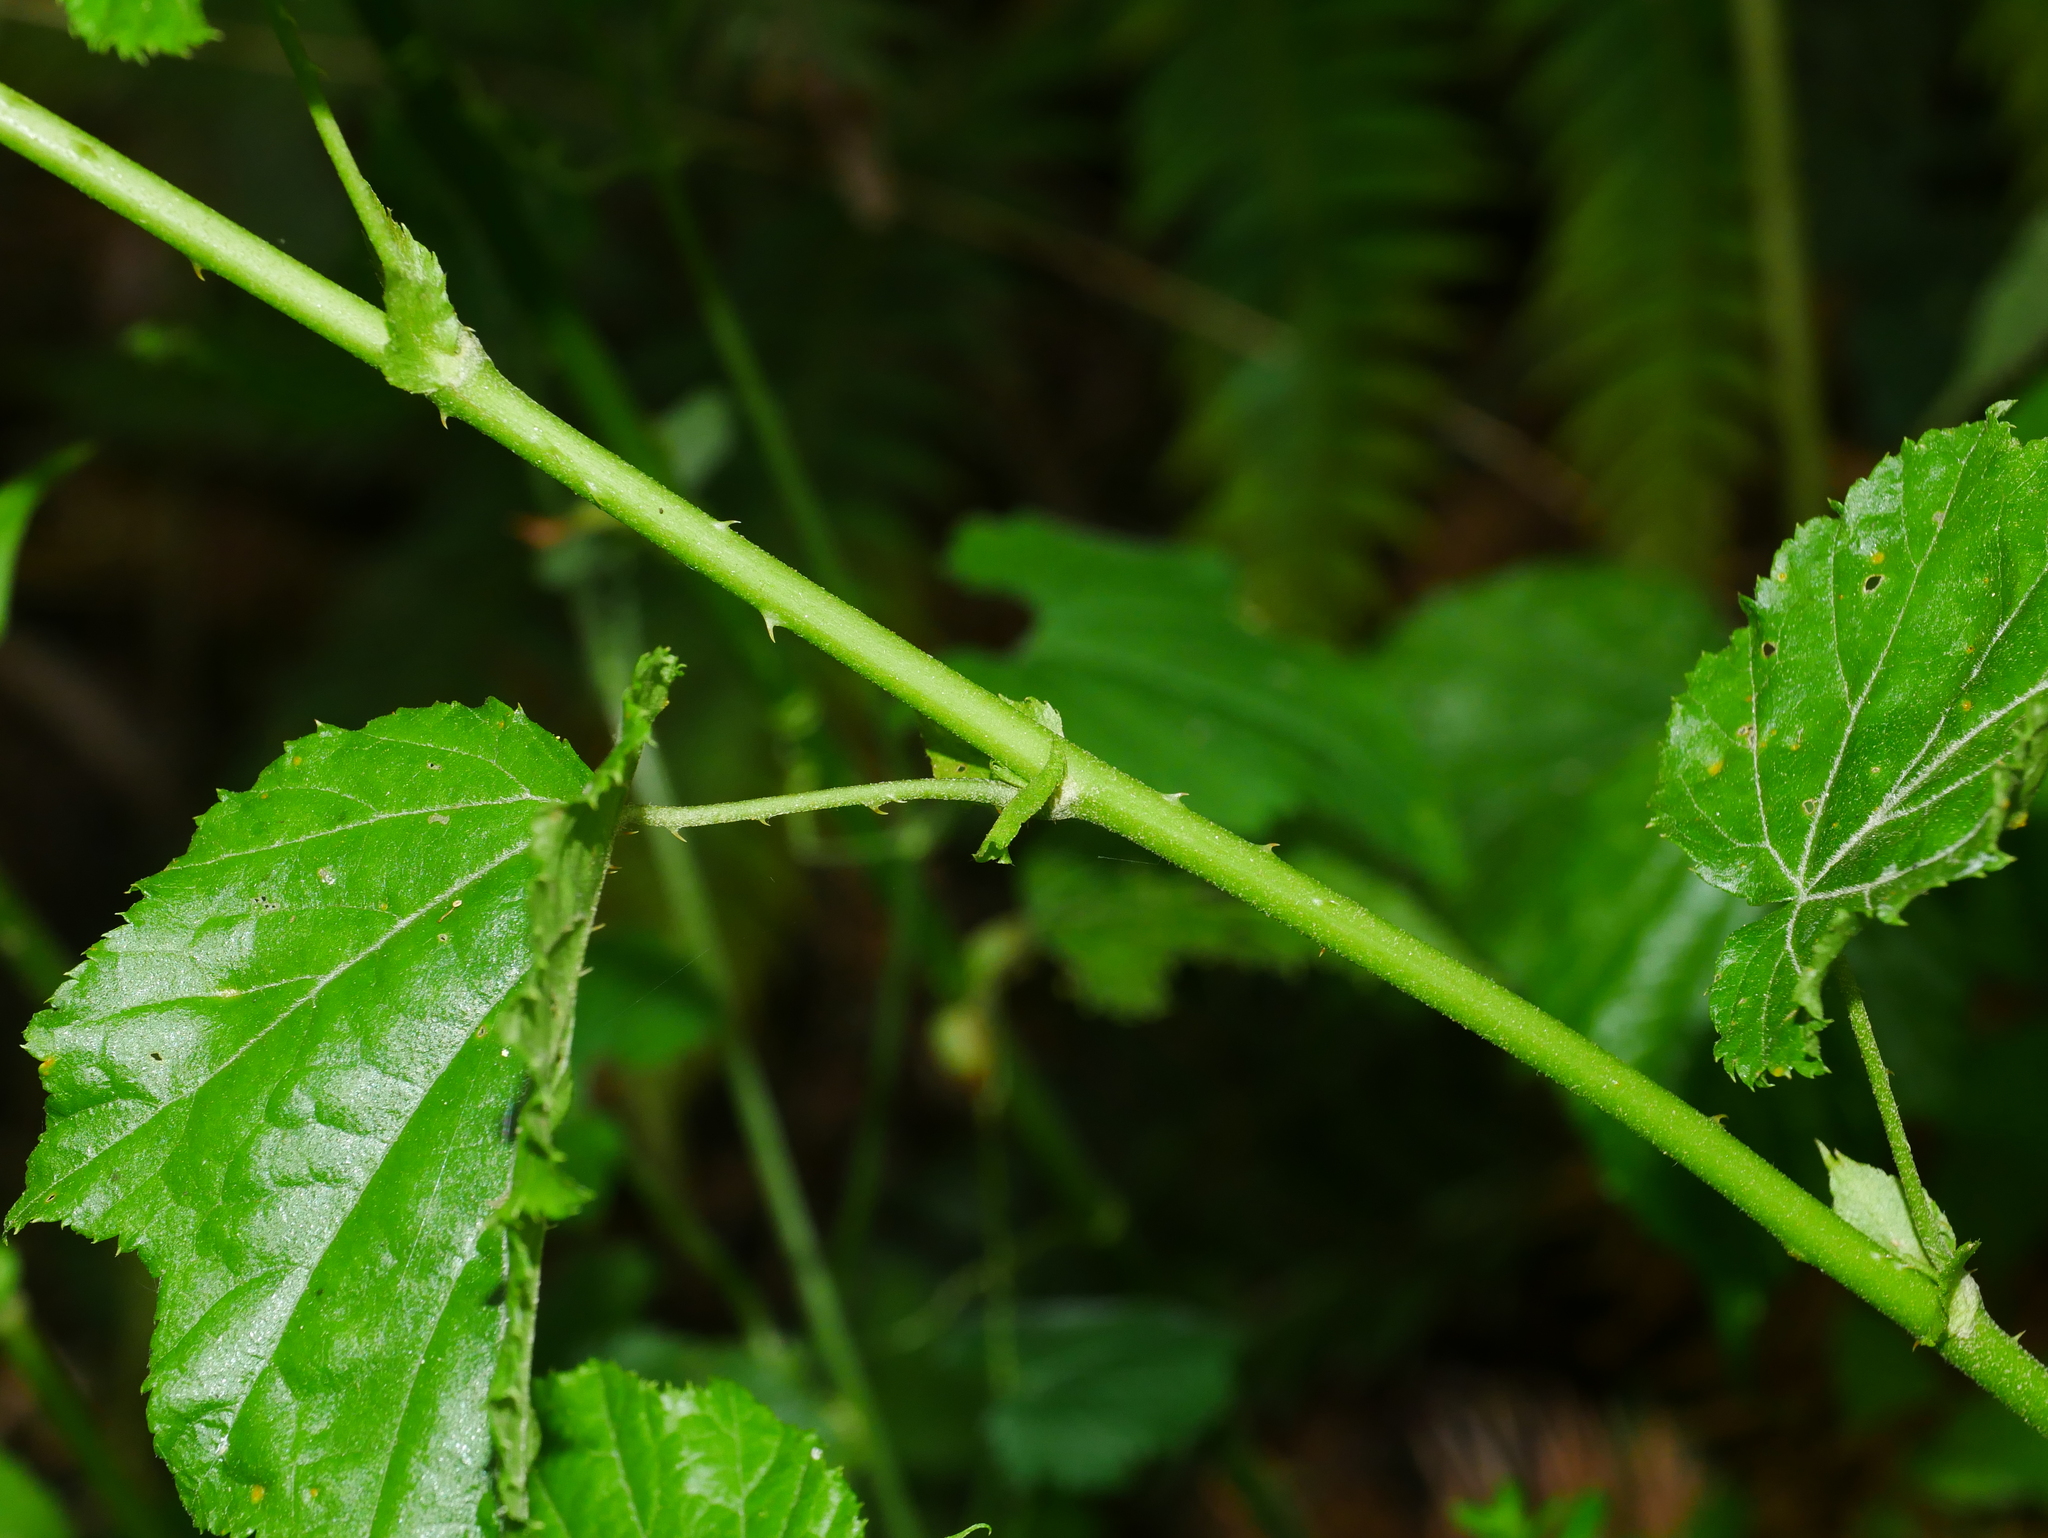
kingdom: Plantae
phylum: Tracheophyta
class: Magnoliopsida
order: Rosales
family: Rosaceae
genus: Rubus
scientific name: Rubus lambertianus
